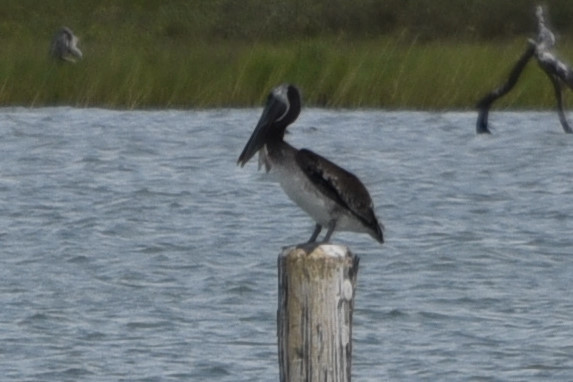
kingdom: Animalia
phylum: Chordata
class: Aves
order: Pelecaniformes
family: Pelecanidae
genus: Pelecanus
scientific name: Pelecanus occidentalis
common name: Brown pelican
